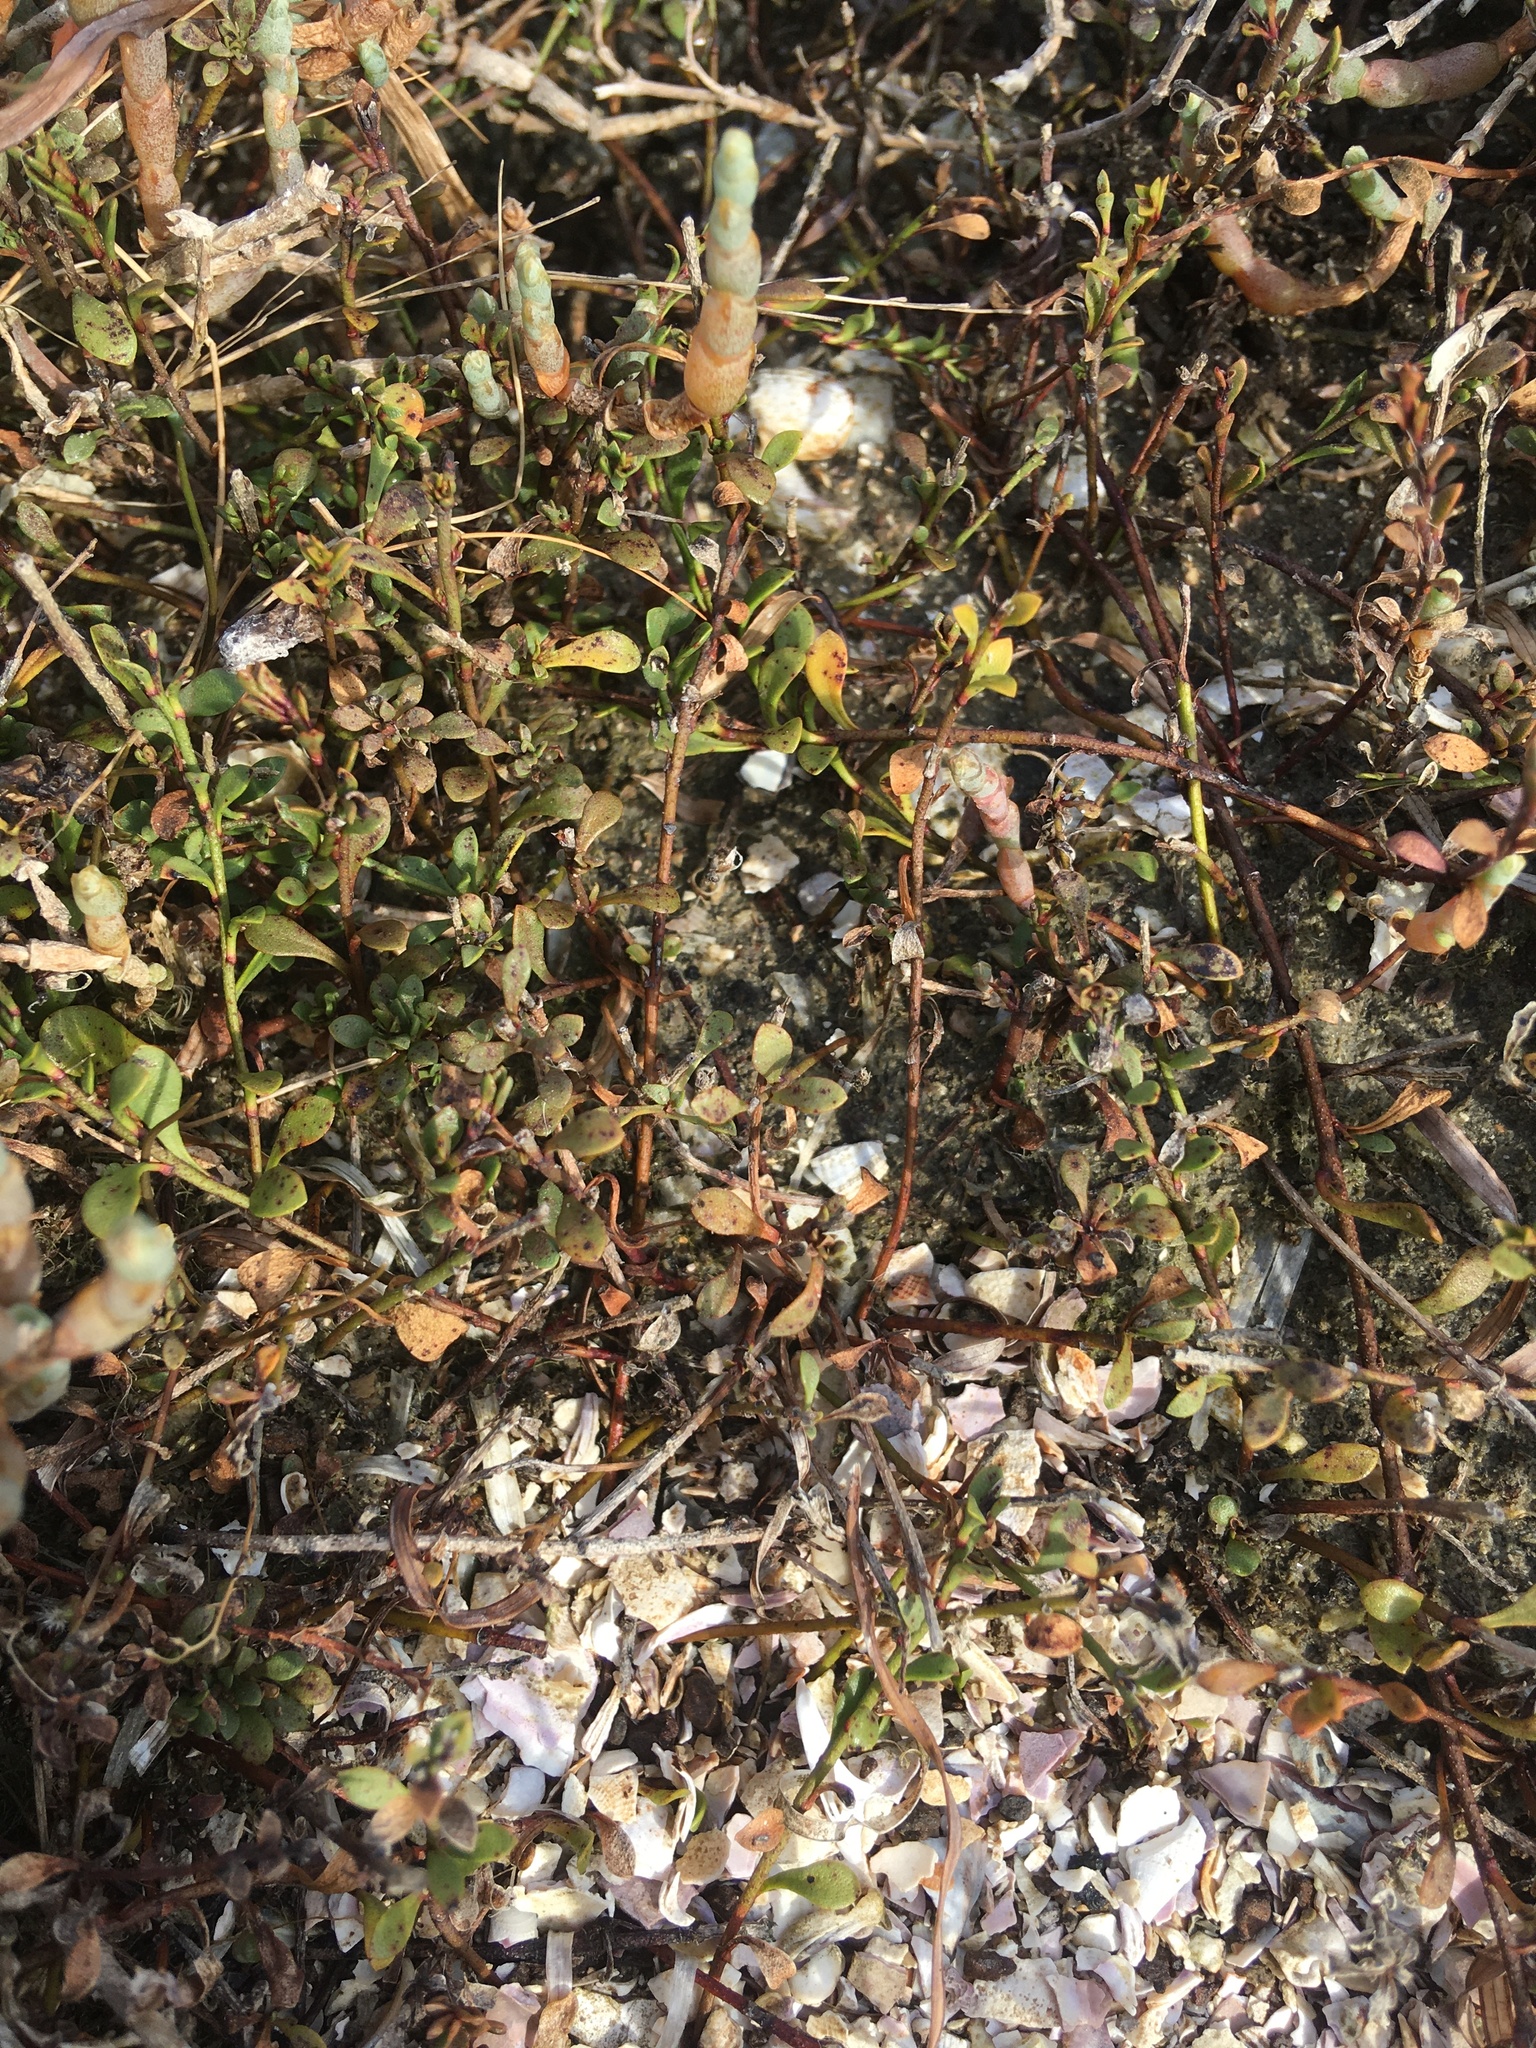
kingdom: Plantae
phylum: Tracheophyta
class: Magnoliopsida
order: Ericales
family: Primulaceae
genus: Samolus
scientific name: Samolus repens
